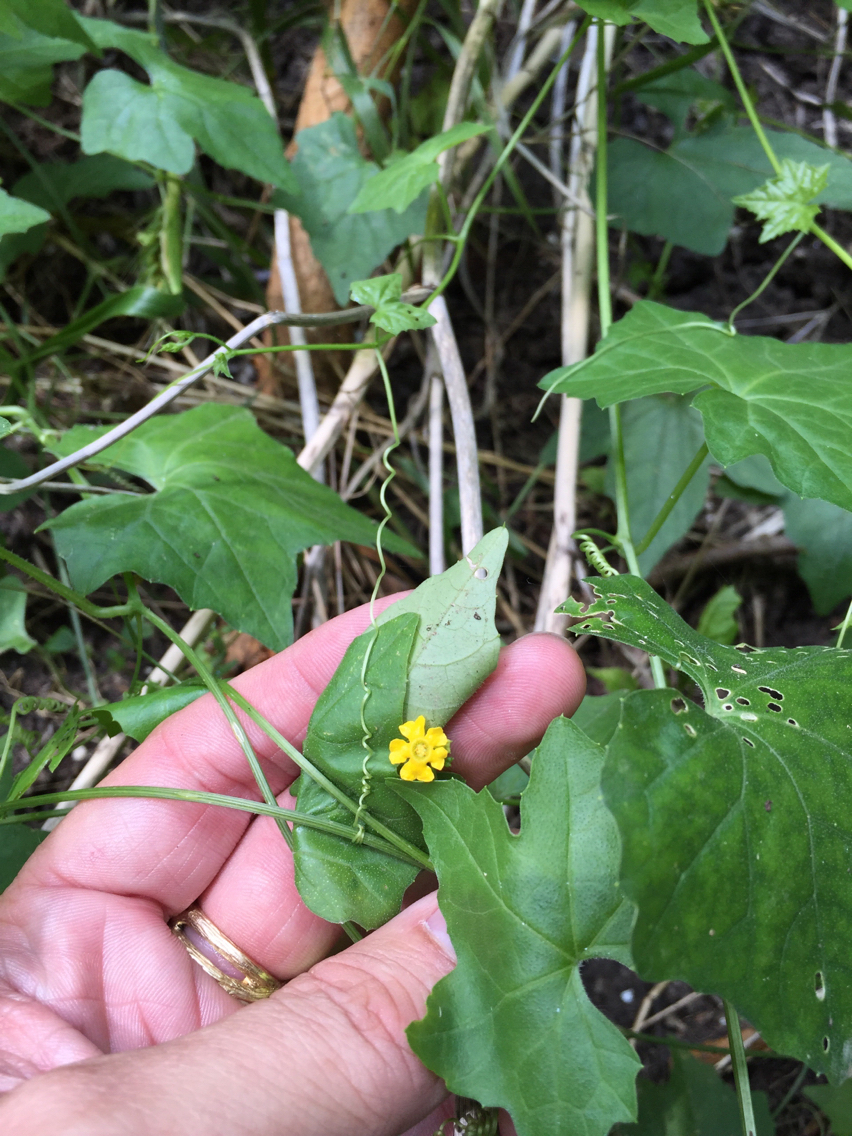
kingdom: Plantae
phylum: Tracheophyta
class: Magnoliopsida
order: Cucurbitales
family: Cucurbitaceae
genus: Melothria
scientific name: Melothria pendula
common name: Creeping-cucumber
